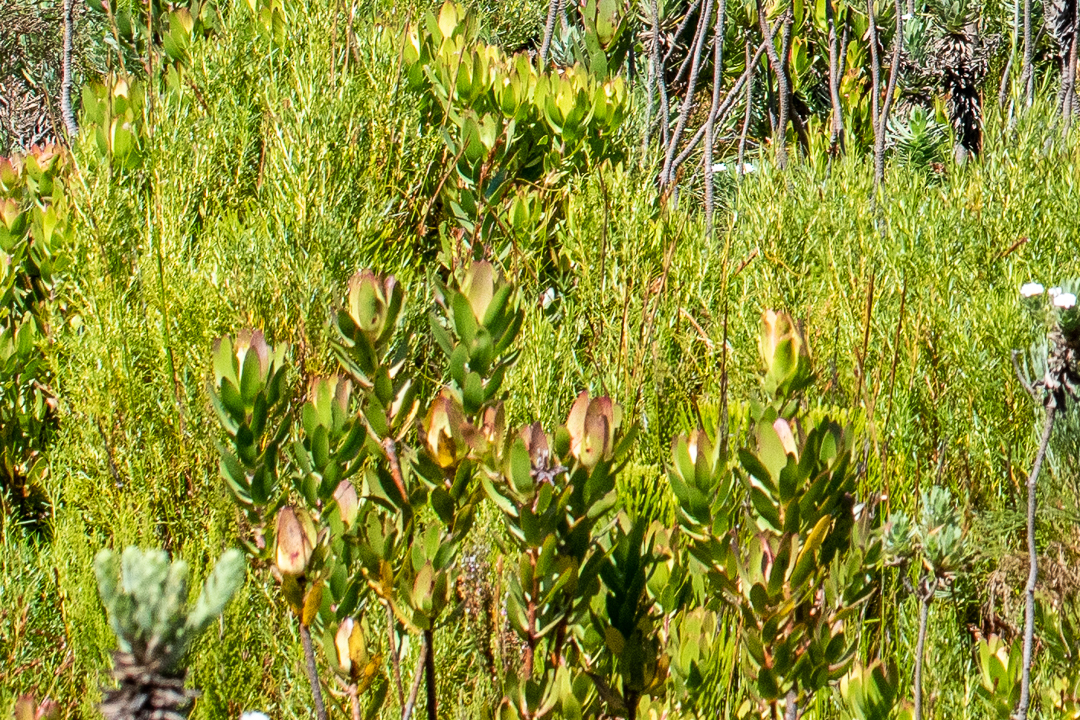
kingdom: Plantae
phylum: Tracheophyta
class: Magnoliopsida
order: Proteales
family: Proteaceae
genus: Leucadendron
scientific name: Leucadendron gandogeri
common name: Broad-leaf conebush
